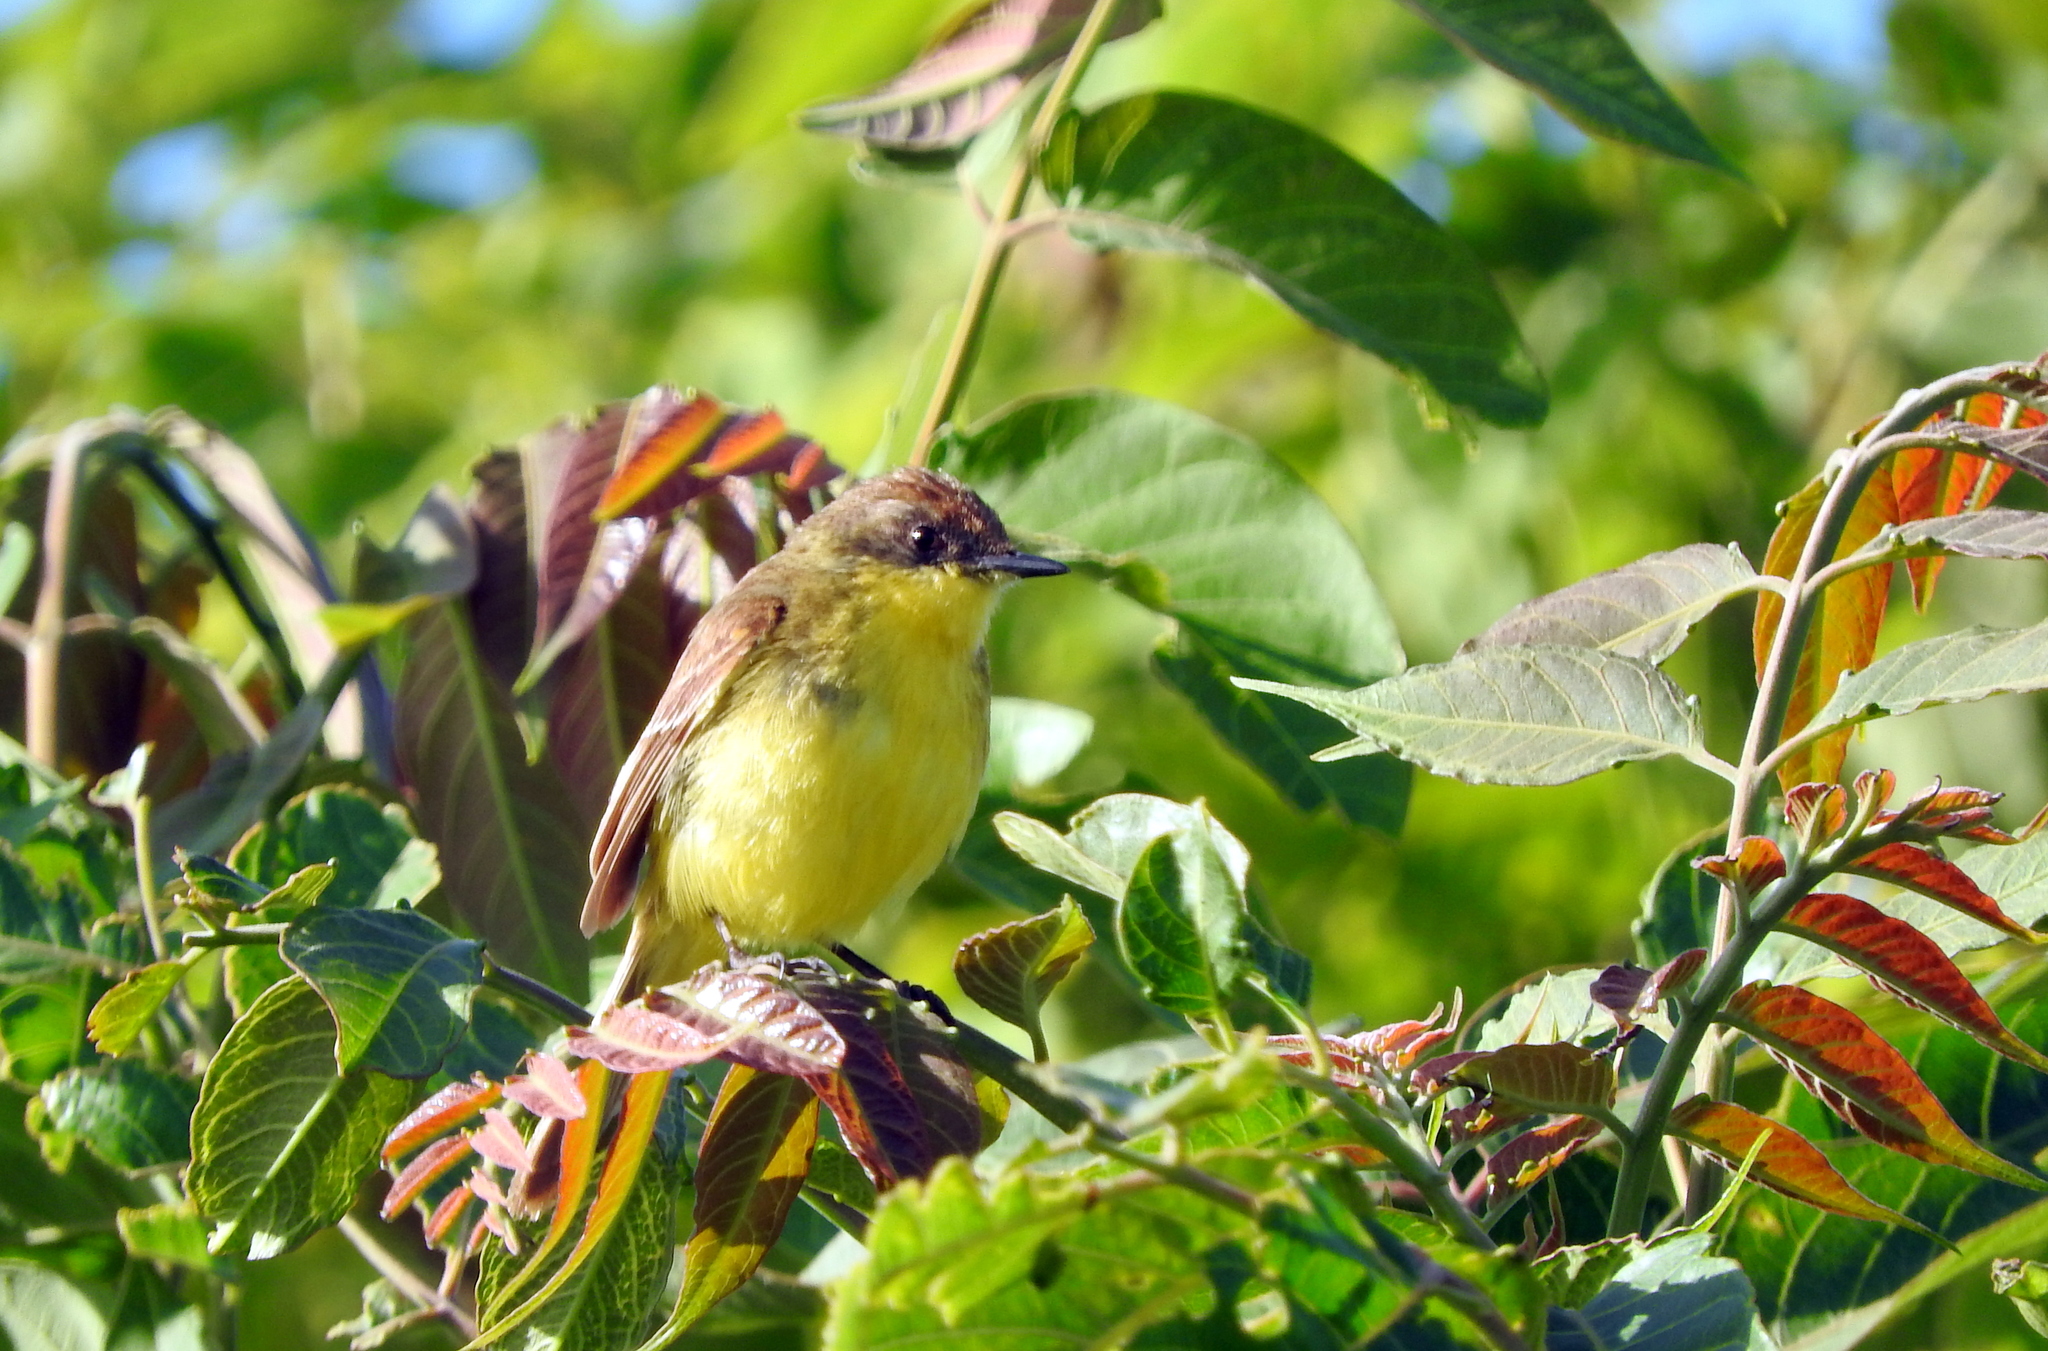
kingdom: Animalia
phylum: Chordata
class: Aves
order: Passeriformes
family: Tyrannidae
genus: Pseudocolopteryx
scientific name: Pseudocolopteryx flaviventris
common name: Warbling doradito
